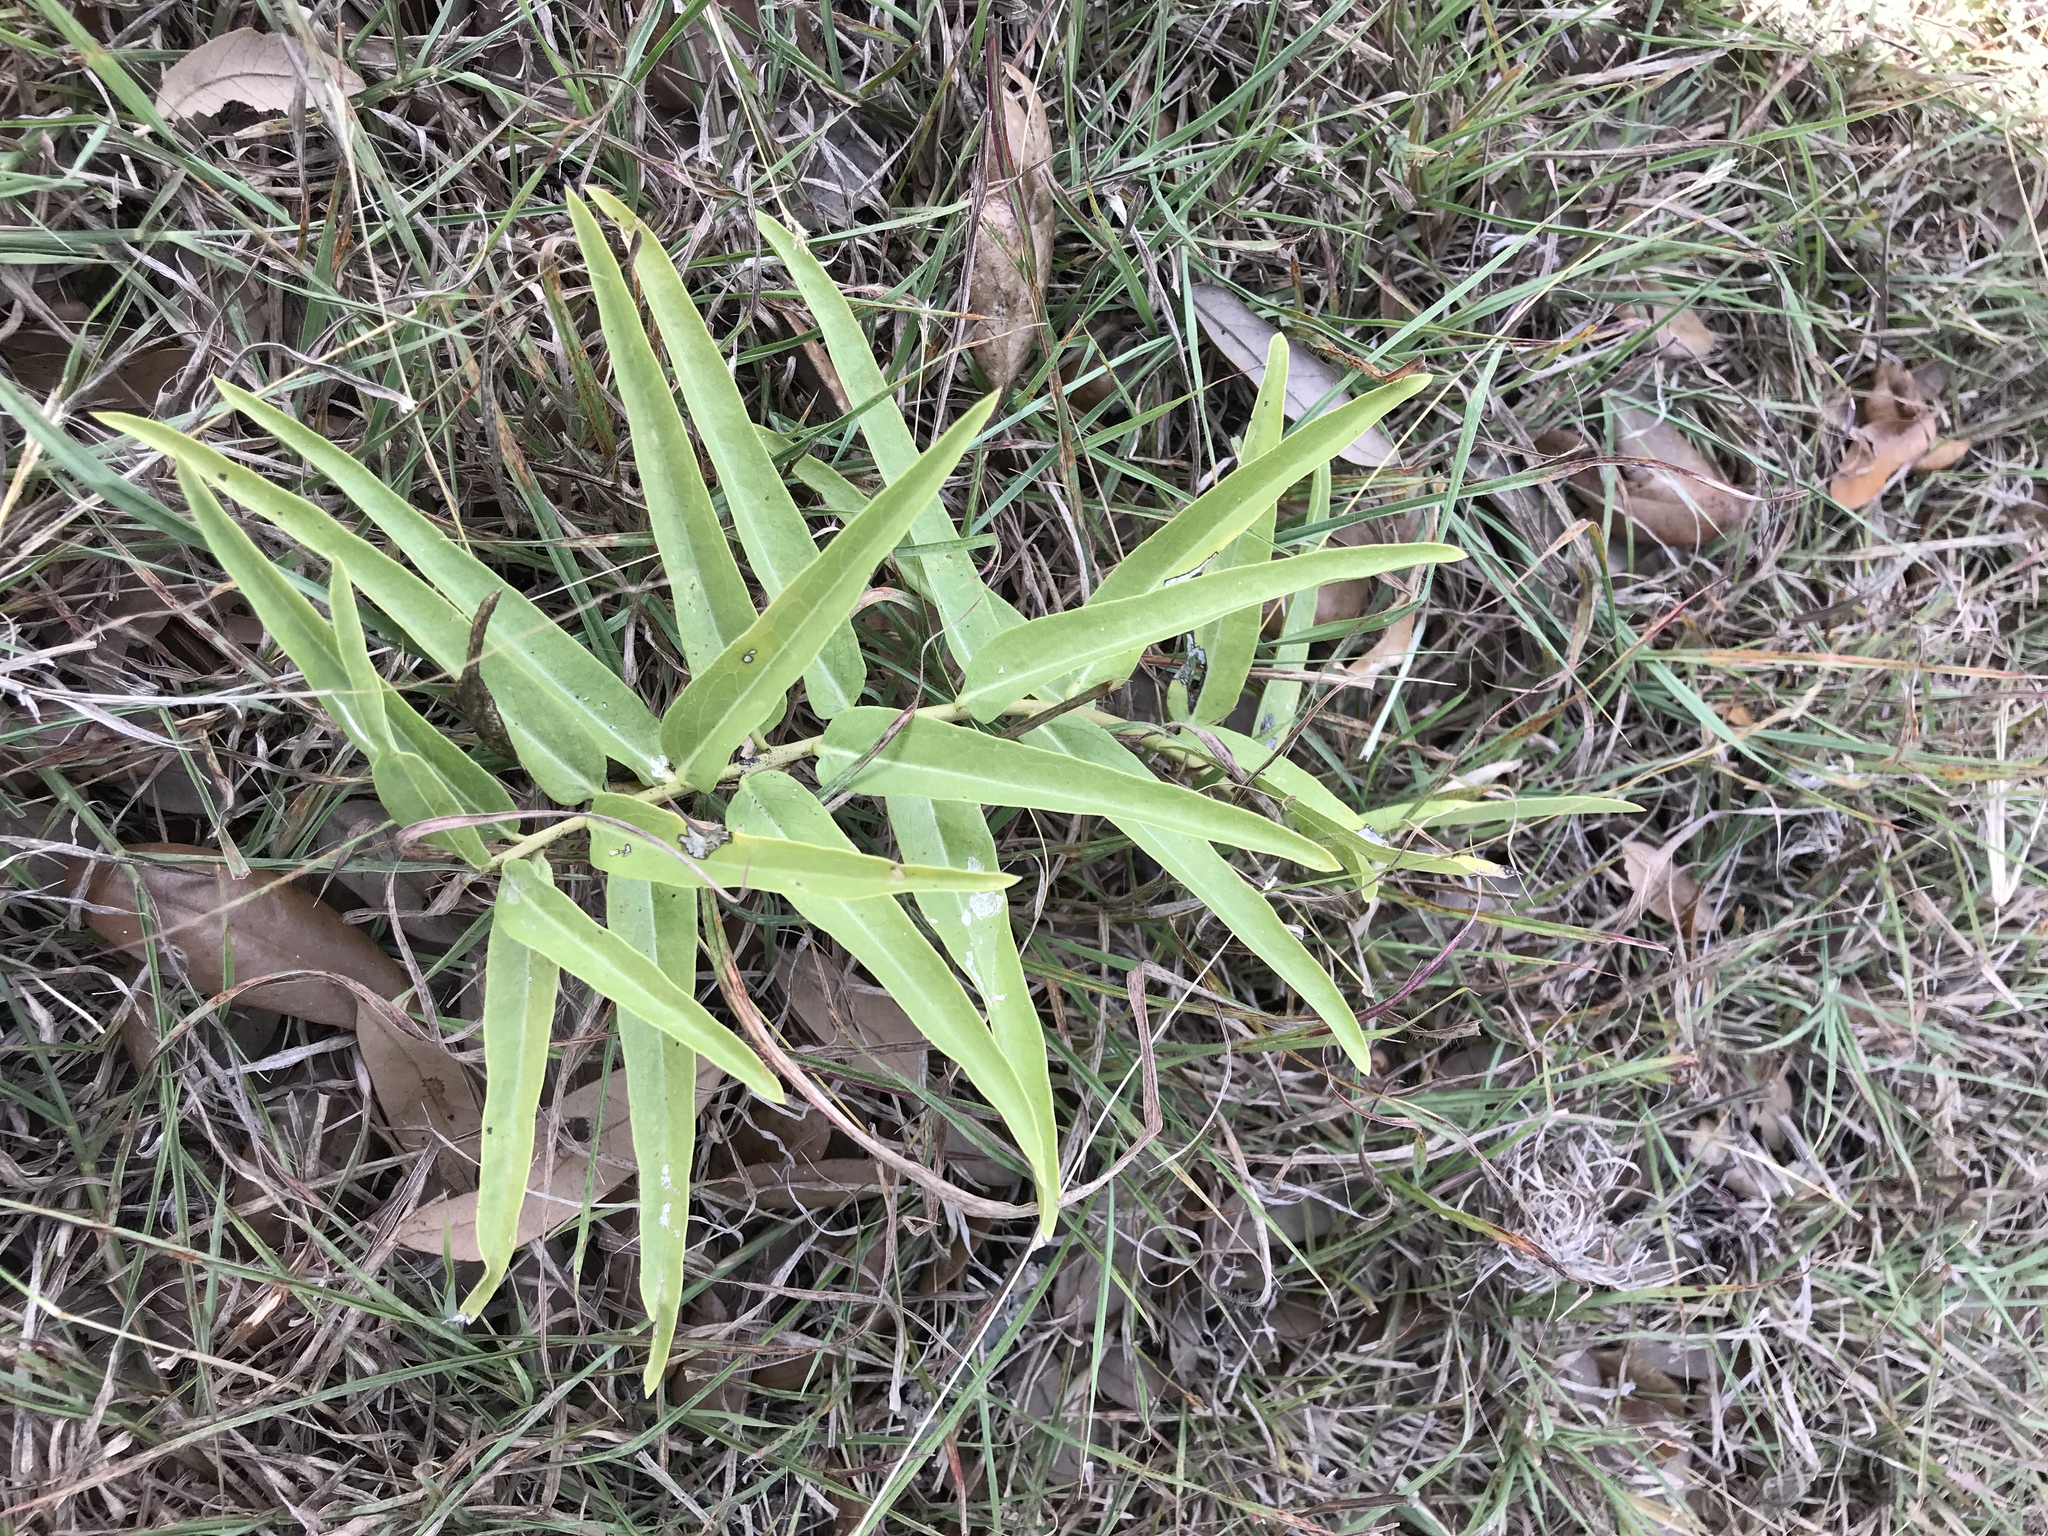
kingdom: Plantae
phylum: Tracheophyta
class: Magnoliopsida
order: Gentianales
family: Apocynaceae
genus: Asclepias
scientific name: Asclepias asperula
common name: Antelope horns
